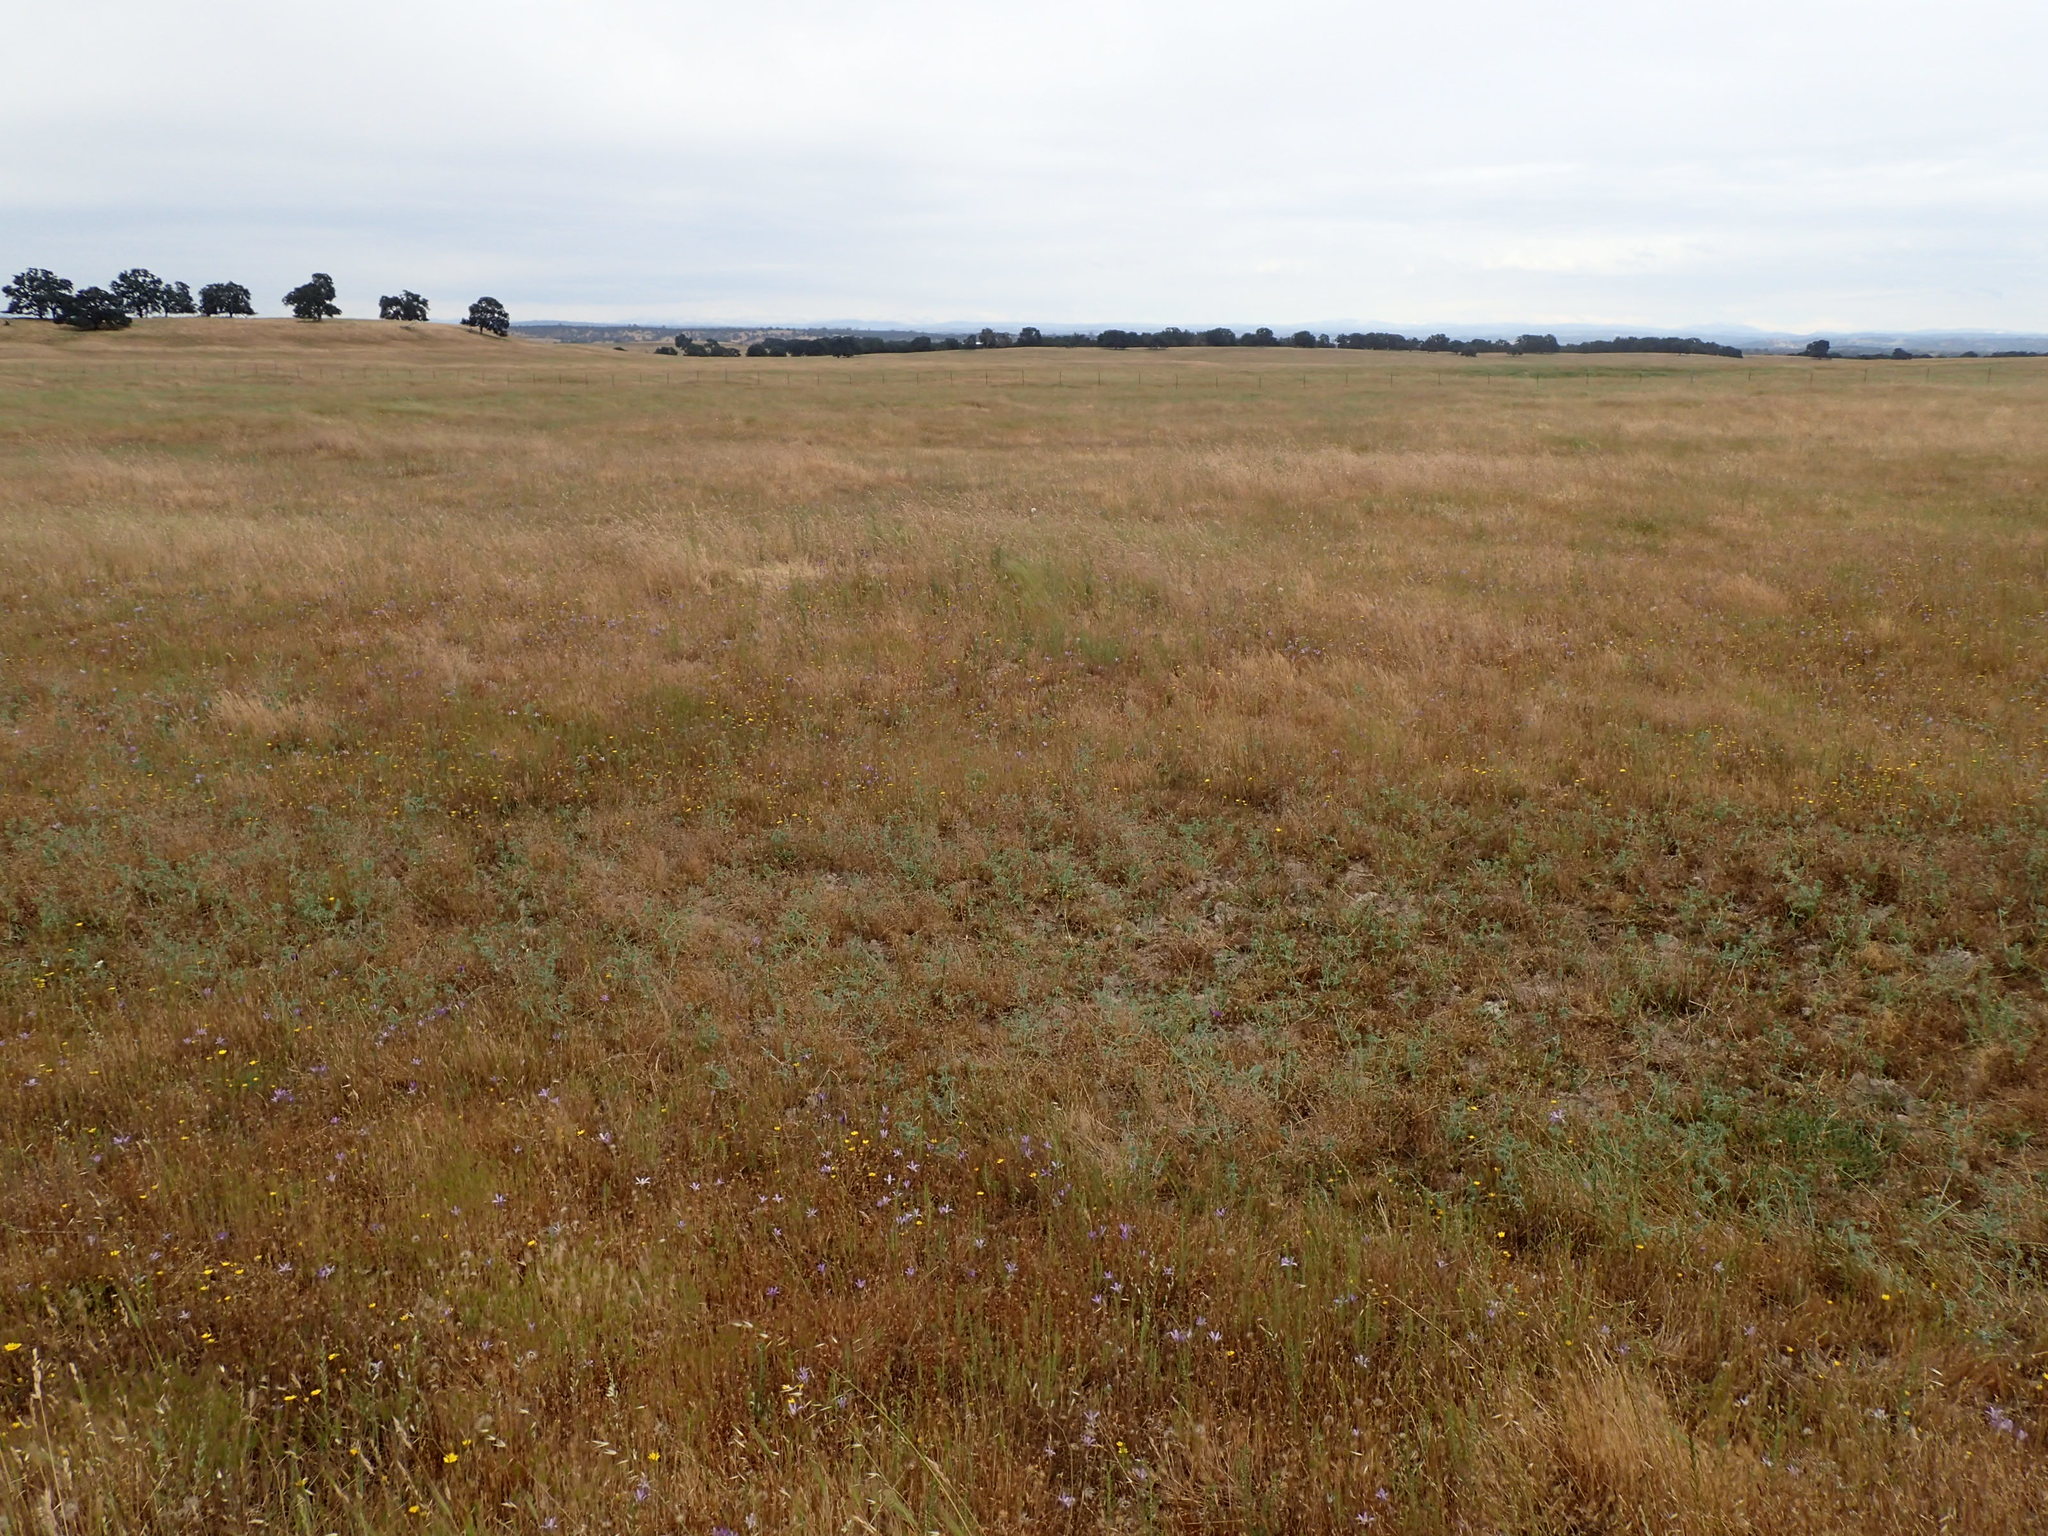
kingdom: Plantae
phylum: Tracheophyta
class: Magnoliopsida
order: Ericales
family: Polemoniaceae
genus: Navarretia
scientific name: Navarretia myersii
